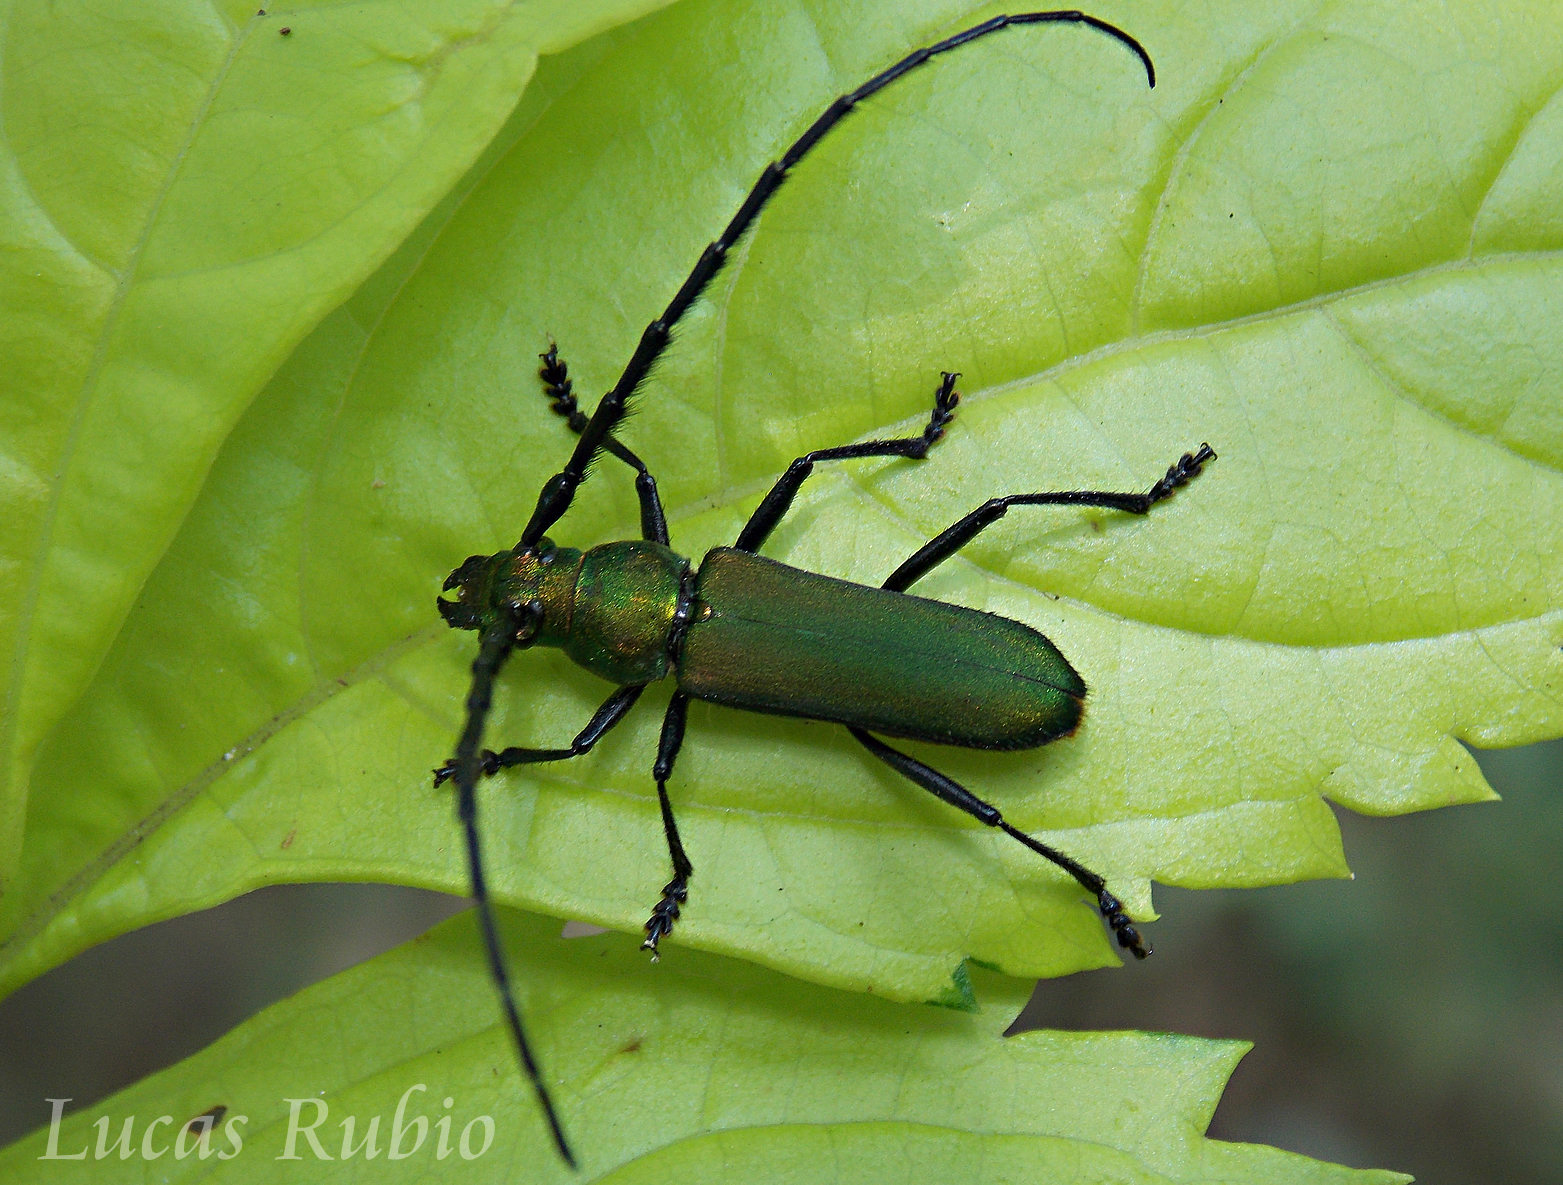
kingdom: Animalia
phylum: Arthropoda
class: Insecta
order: Coleoptera
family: Cerambycidae
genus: Aglaoschema
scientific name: Aglaoschema ventrale
